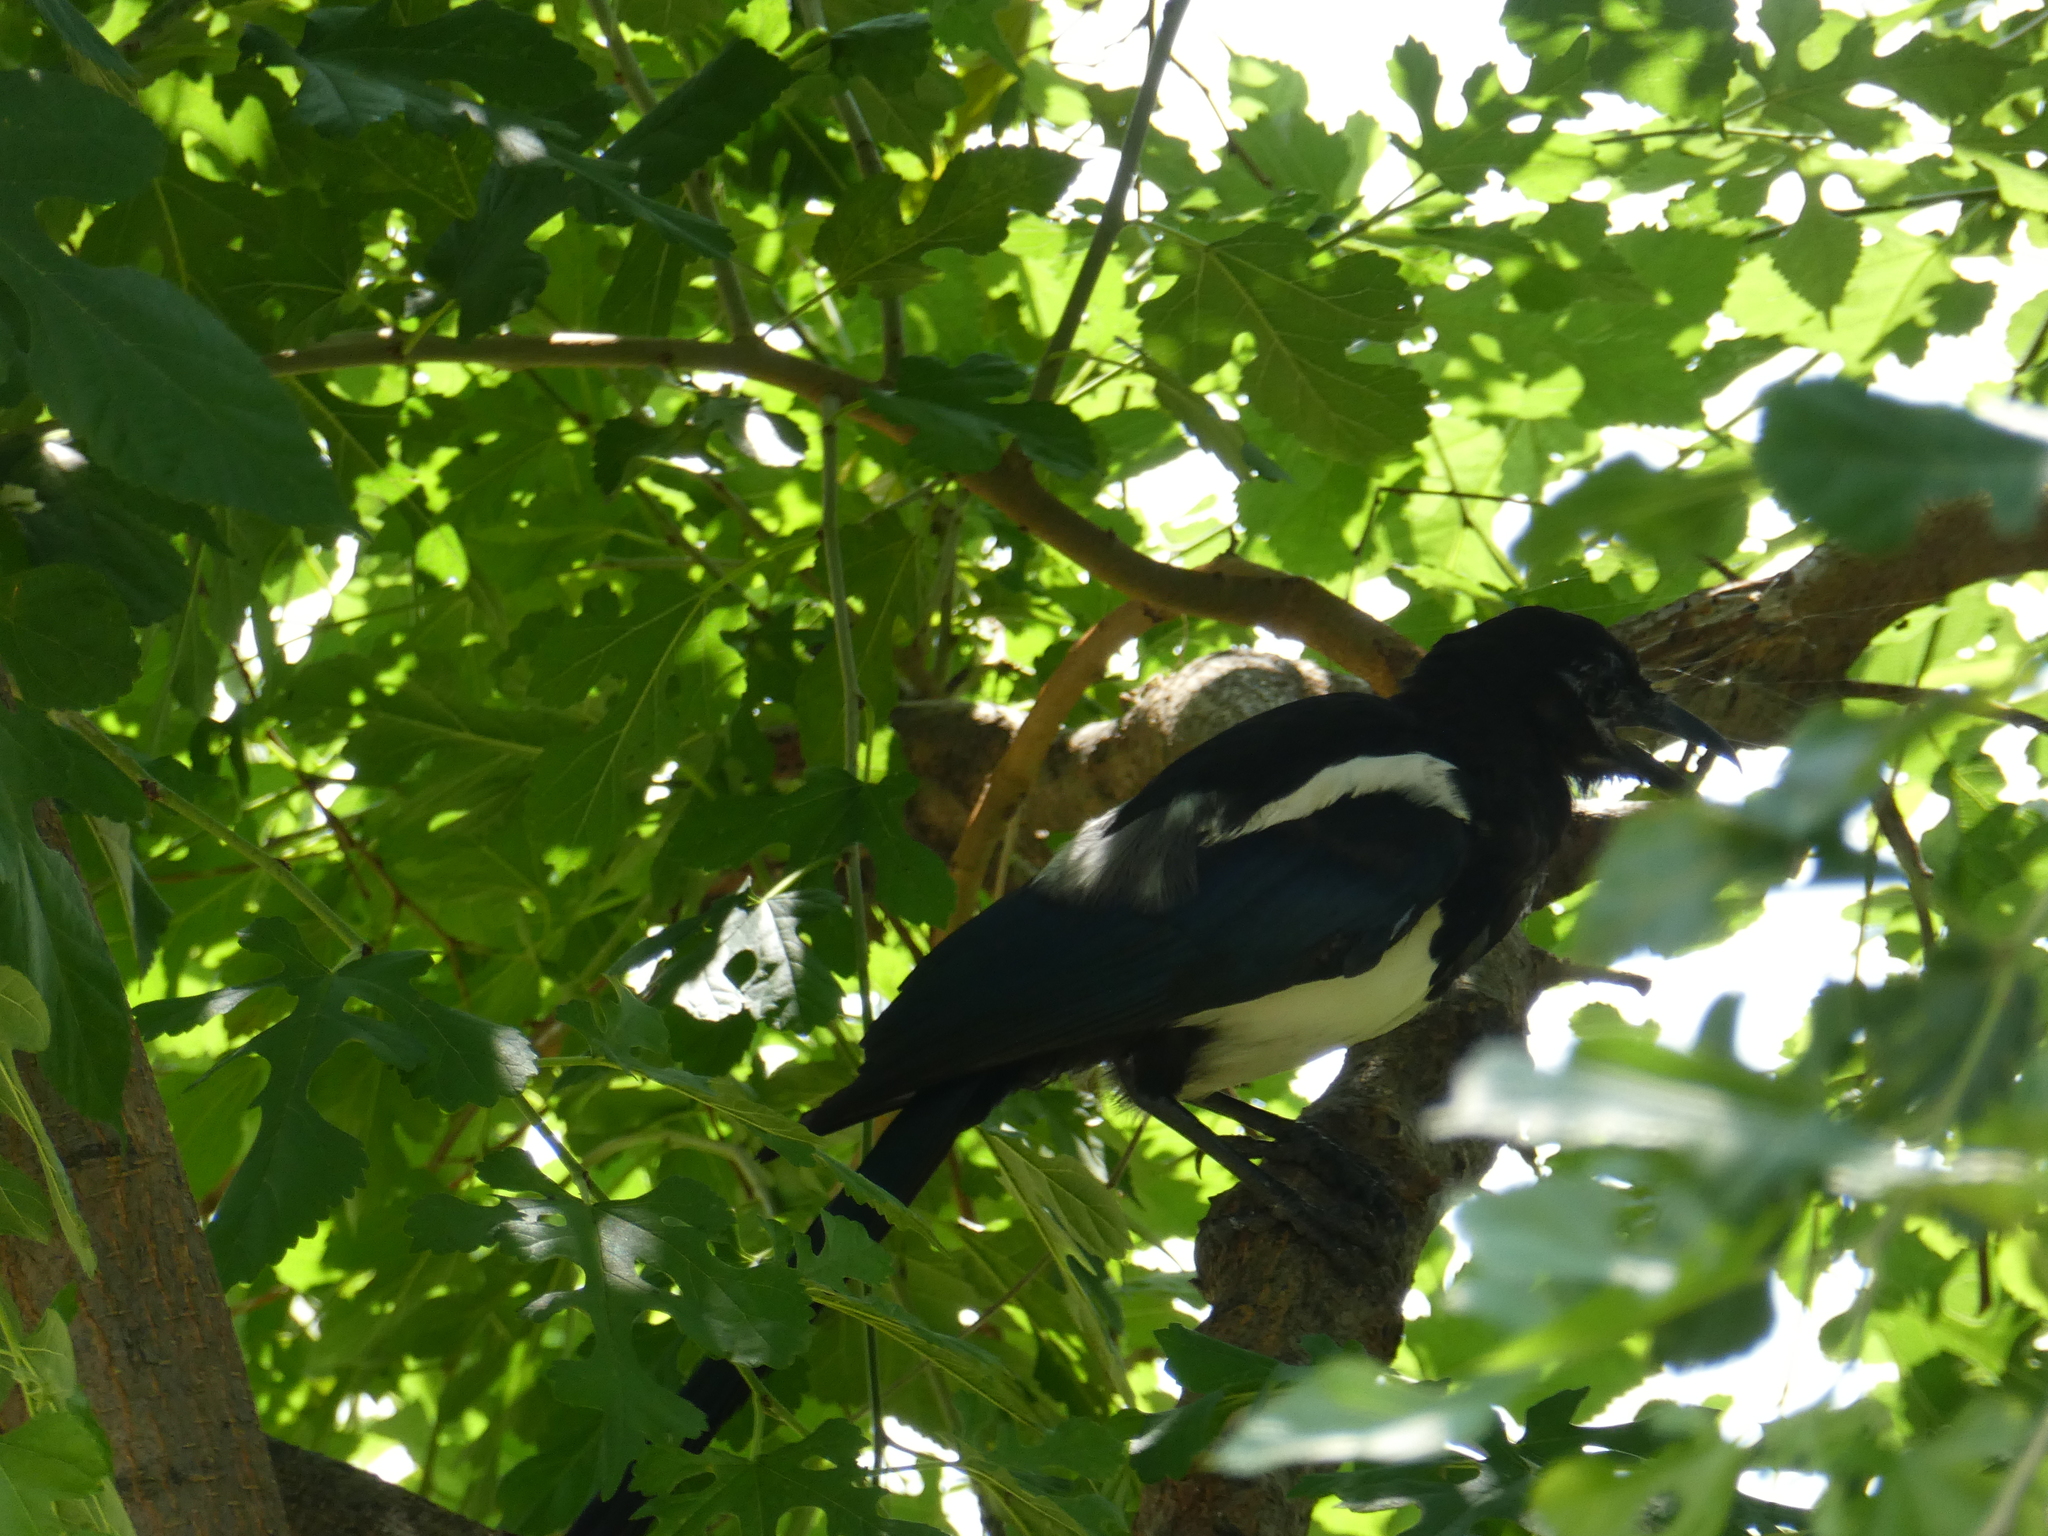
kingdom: Animalia
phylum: Chordata
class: Aves
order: Passeriformes
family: Corvidae
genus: Pica
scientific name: Pica serica
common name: Oriental magpie
